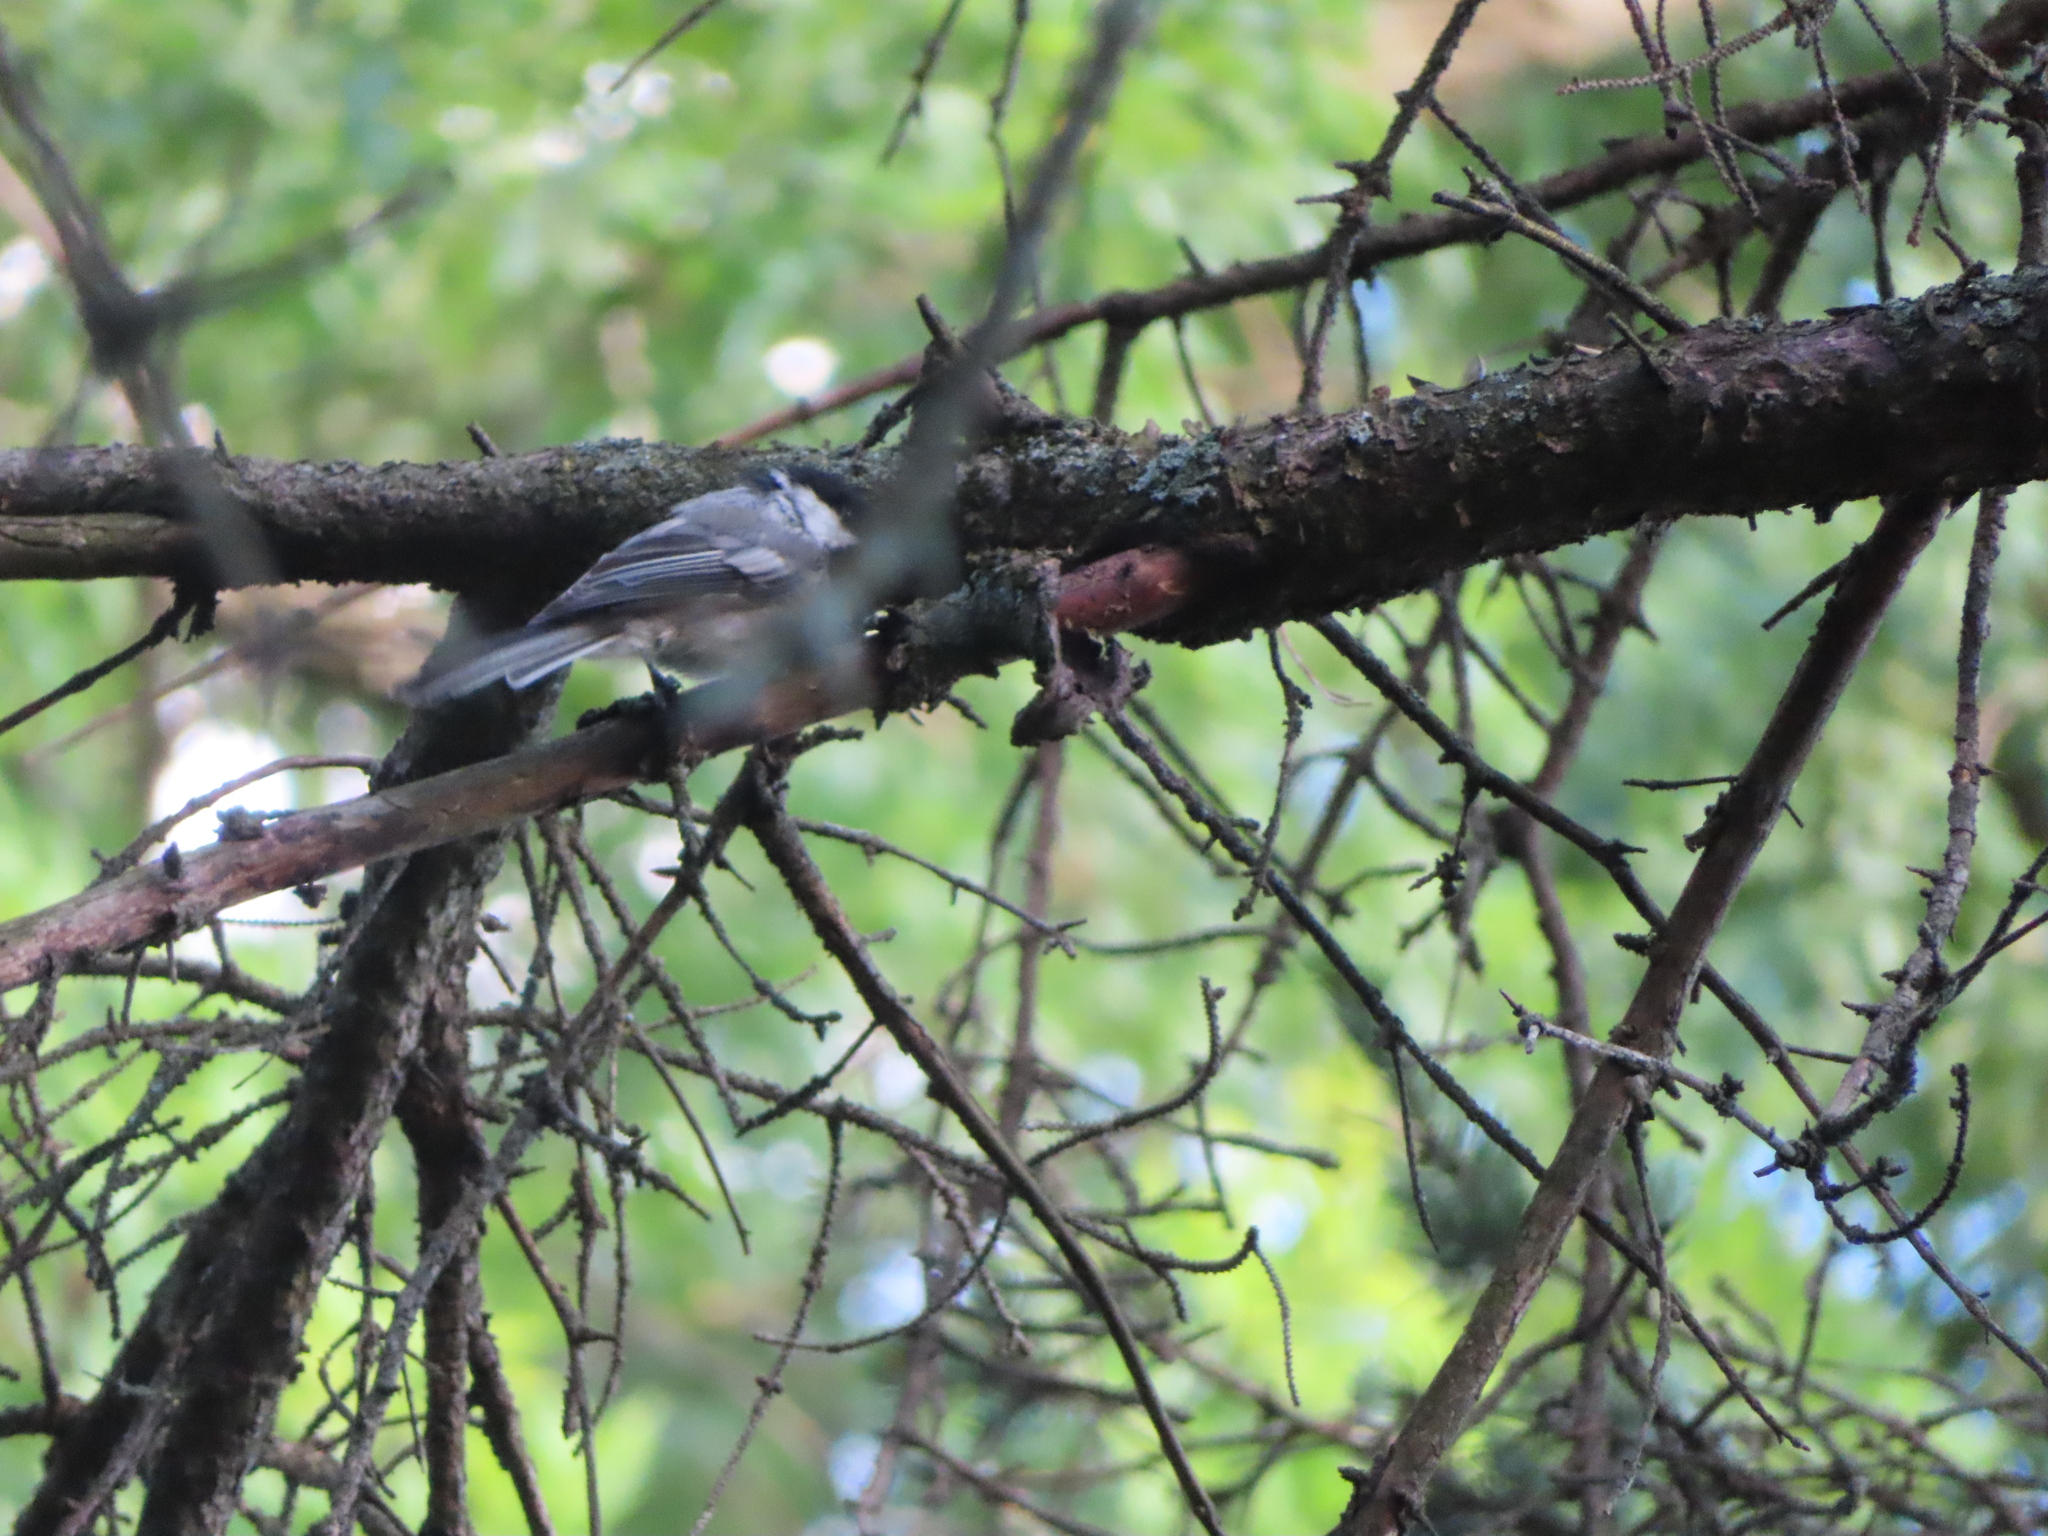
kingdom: Animalia
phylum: Chordata
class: Aves
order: Passeriformes
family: Paridae
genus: Poecile
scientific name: Poecile atricapillus
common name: Black-capped chickadee
